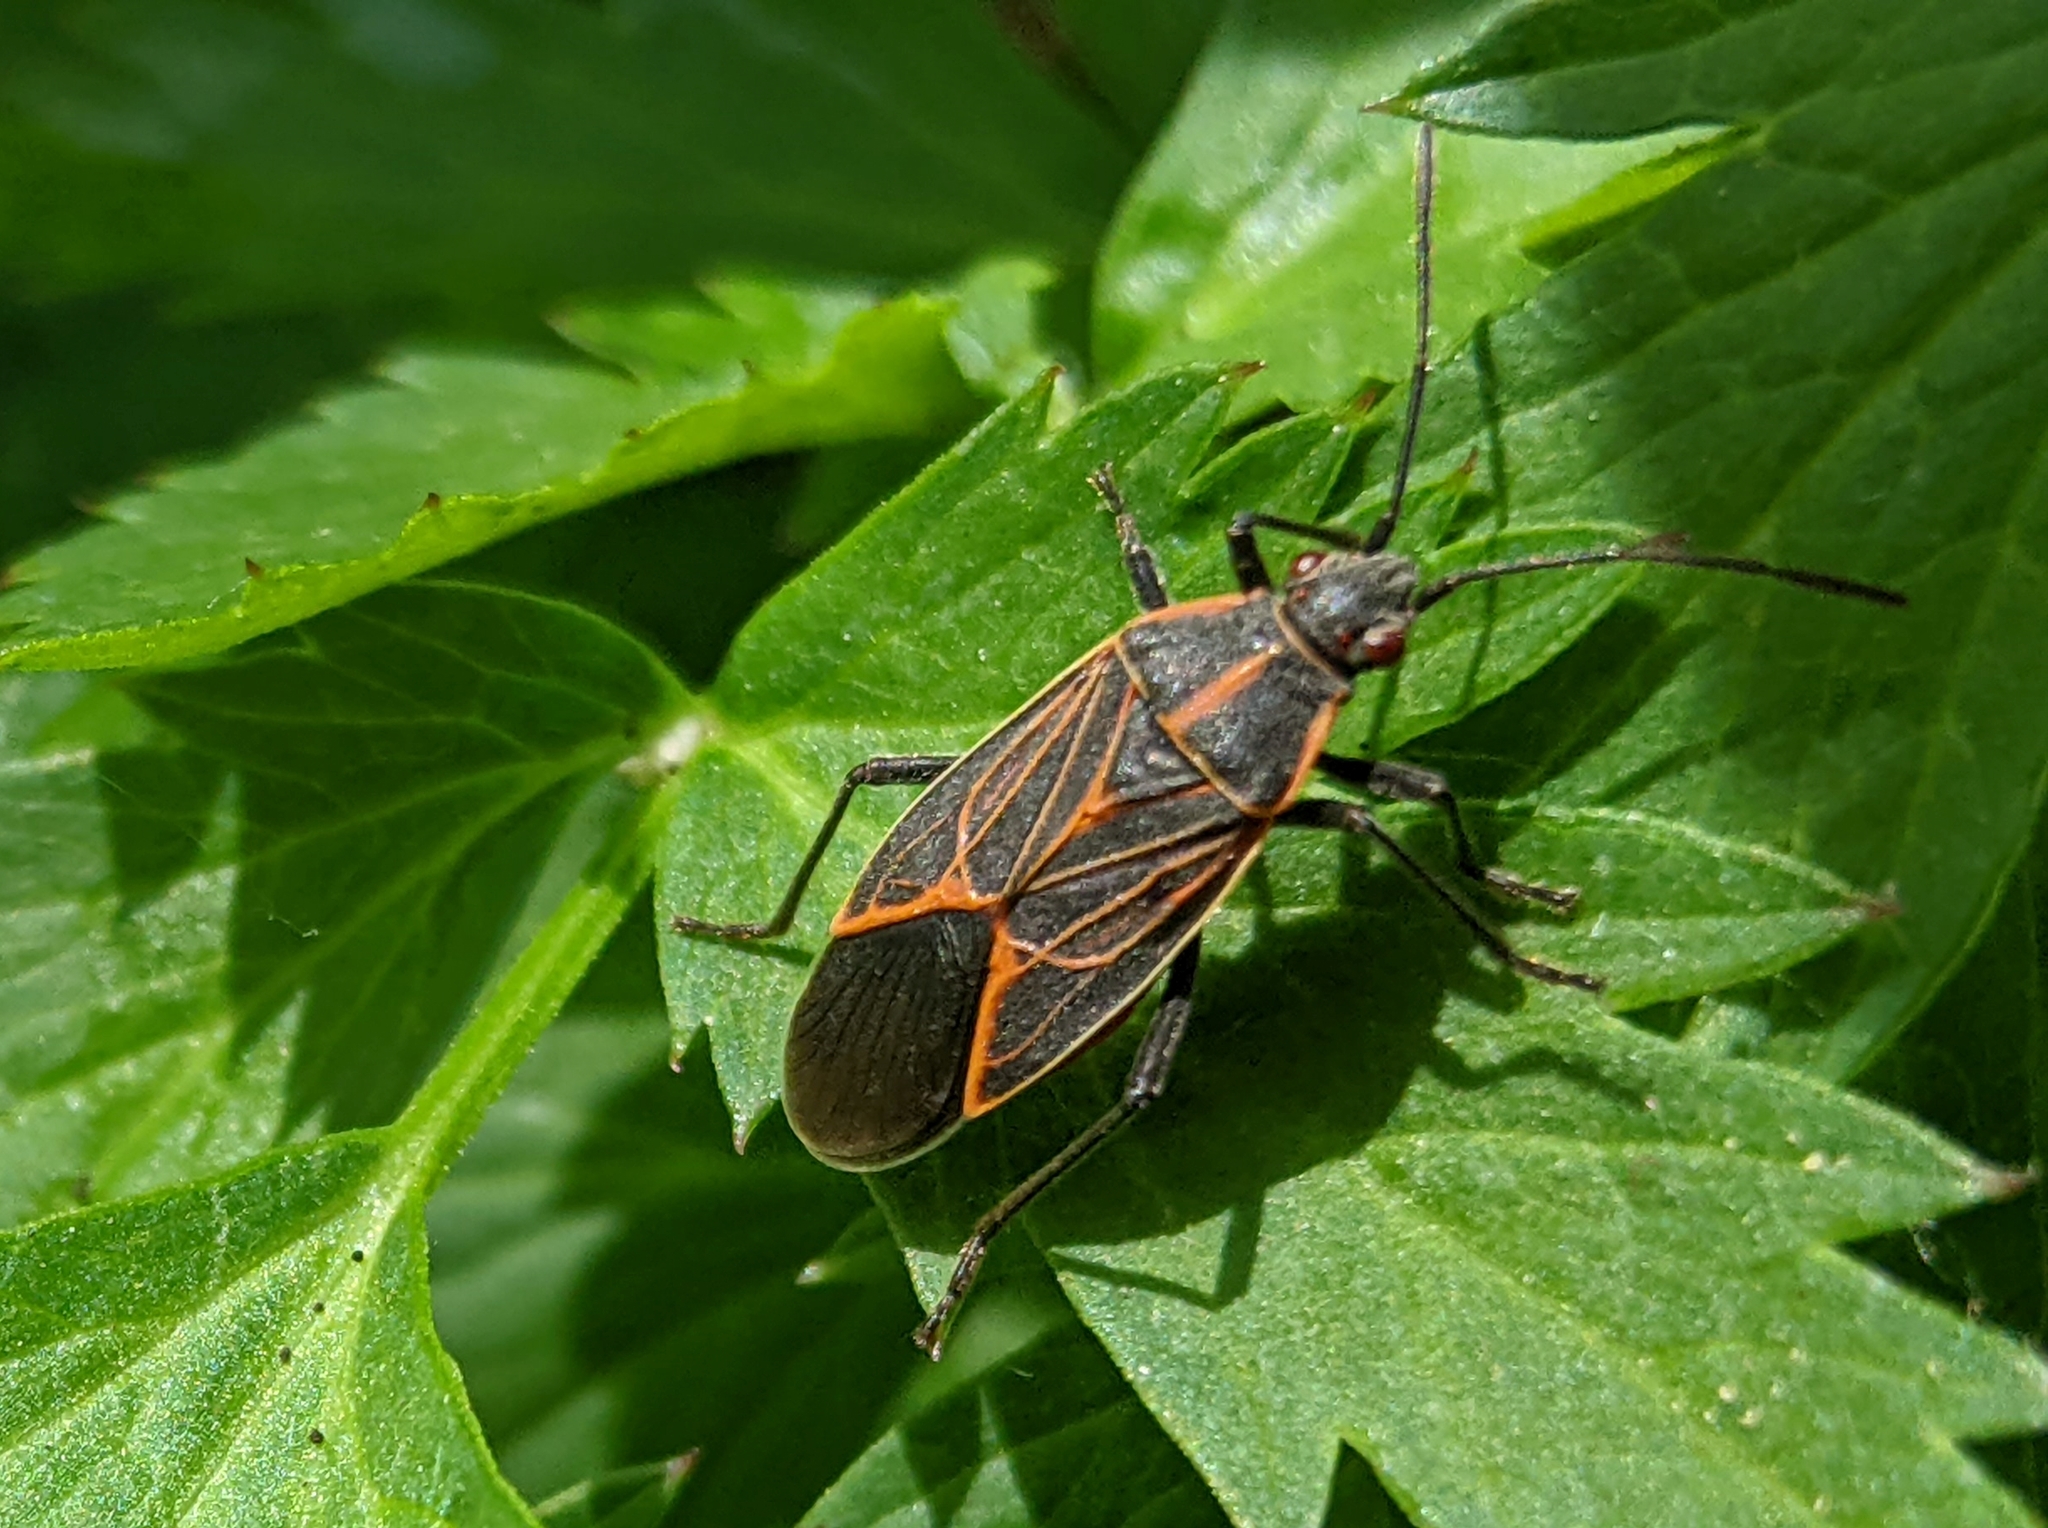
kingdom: Animalia
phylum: Arthropoda
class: Insecta
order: Hemiptera
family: Rhopalidae
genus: Boisea
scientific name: Boisea rubrolineata
